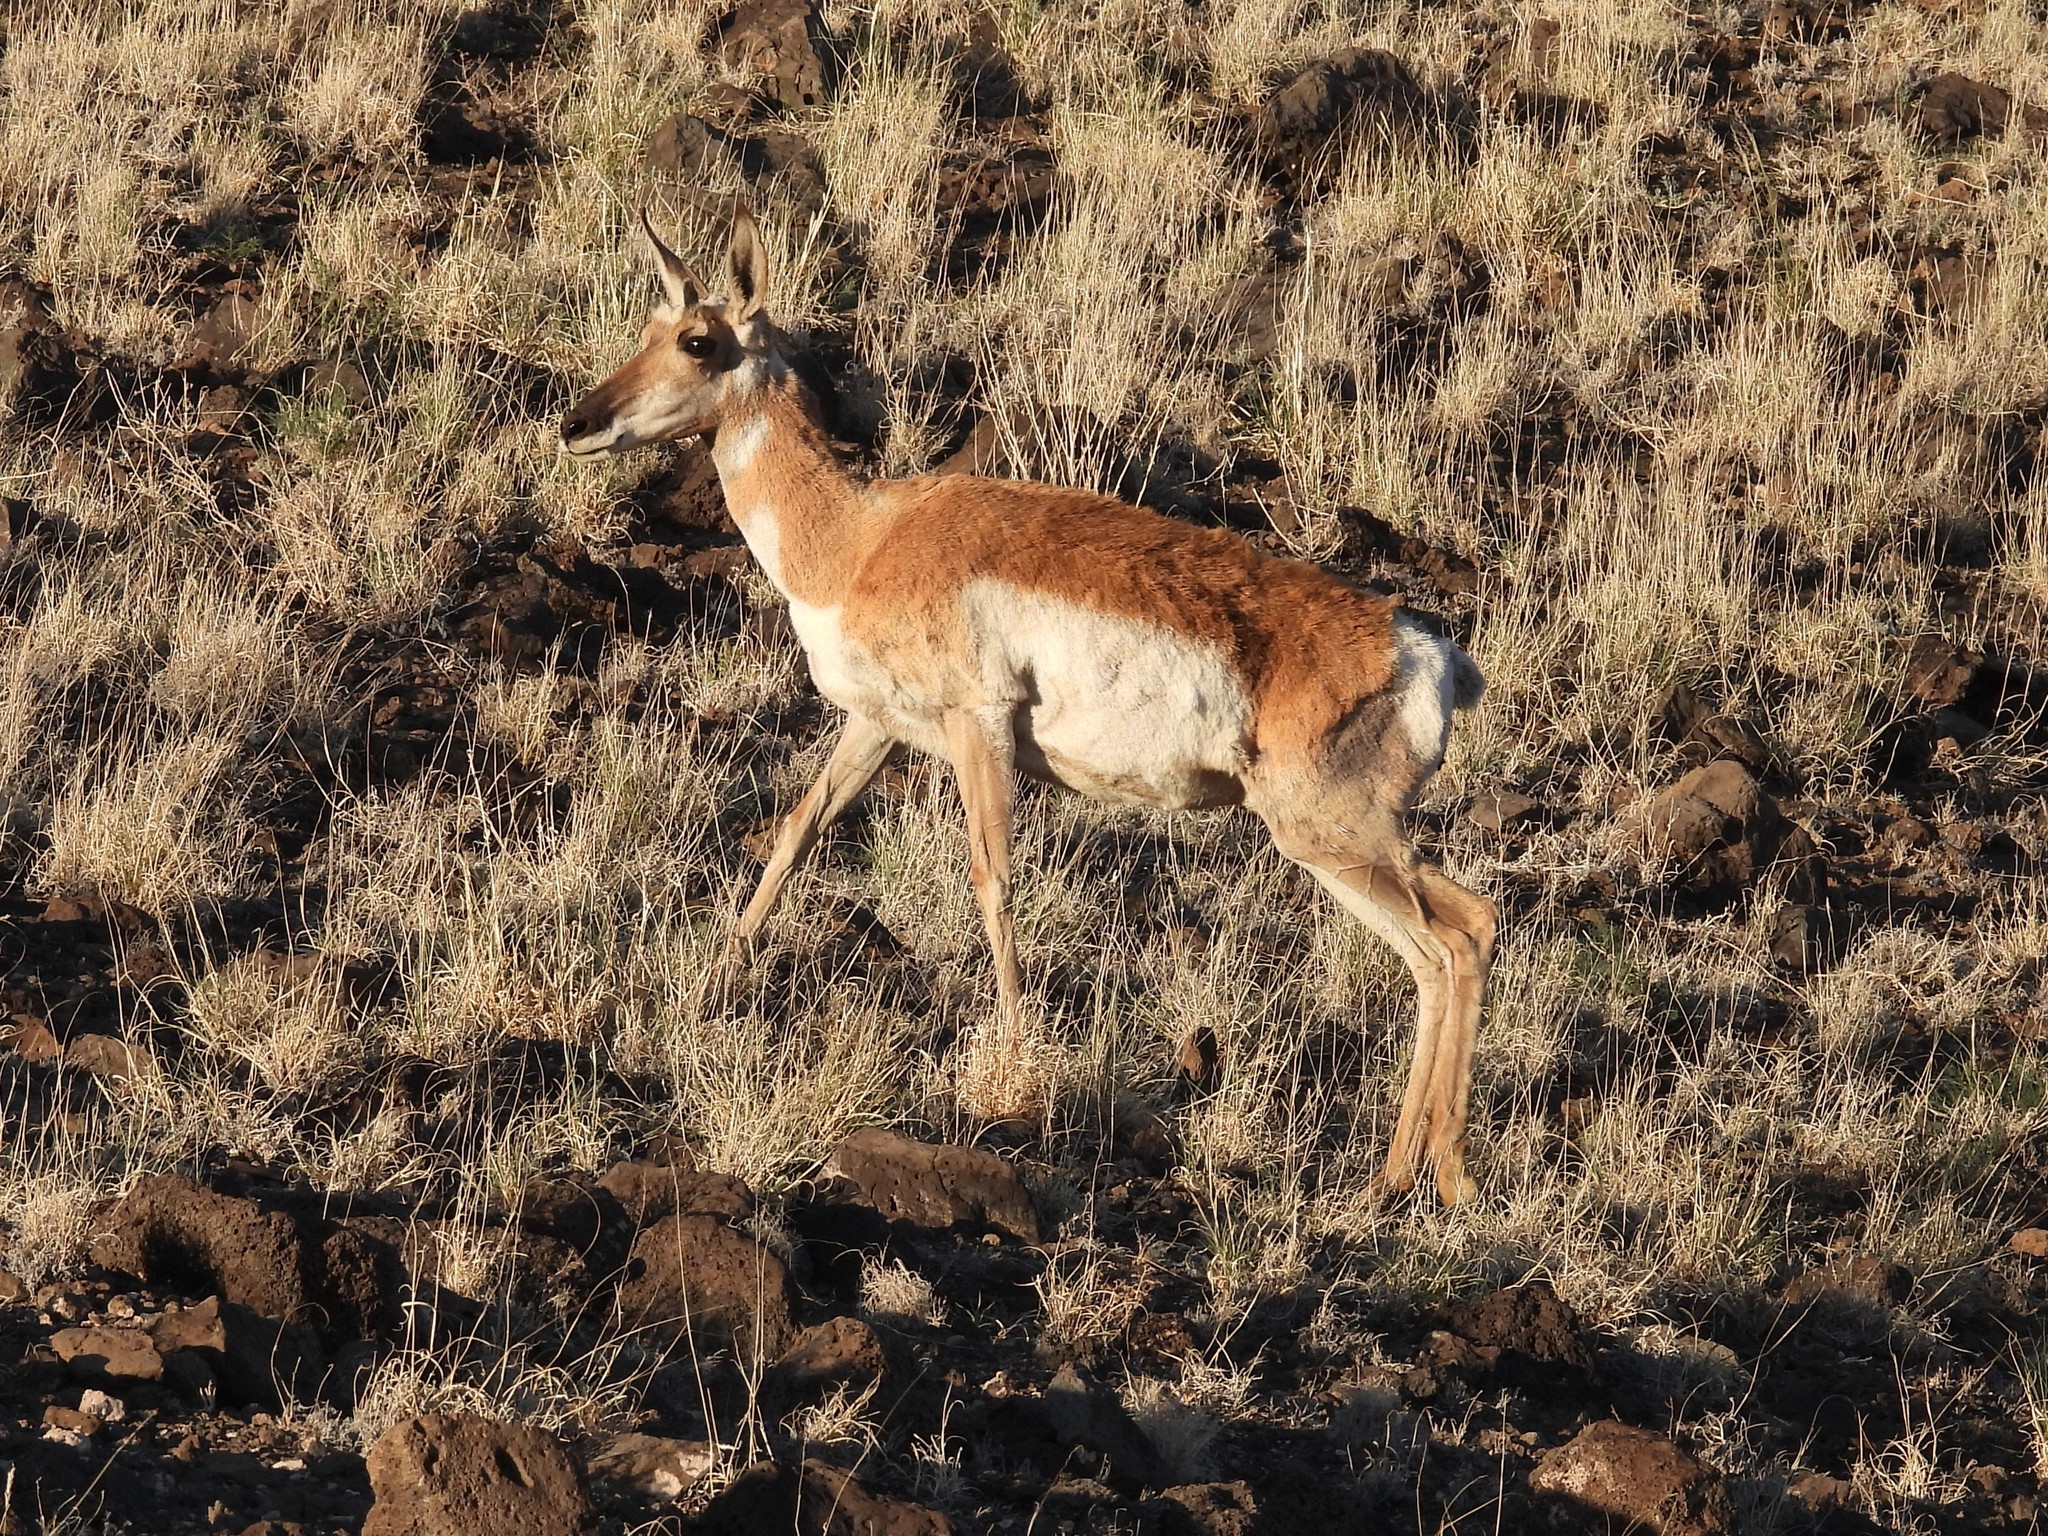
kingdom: Animalia
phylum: Chordata
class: Mammalia
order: Artiodactyla
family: Antilocapridae
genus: Antilocapra
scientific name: Antilocapra americana
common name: Pronghorn
